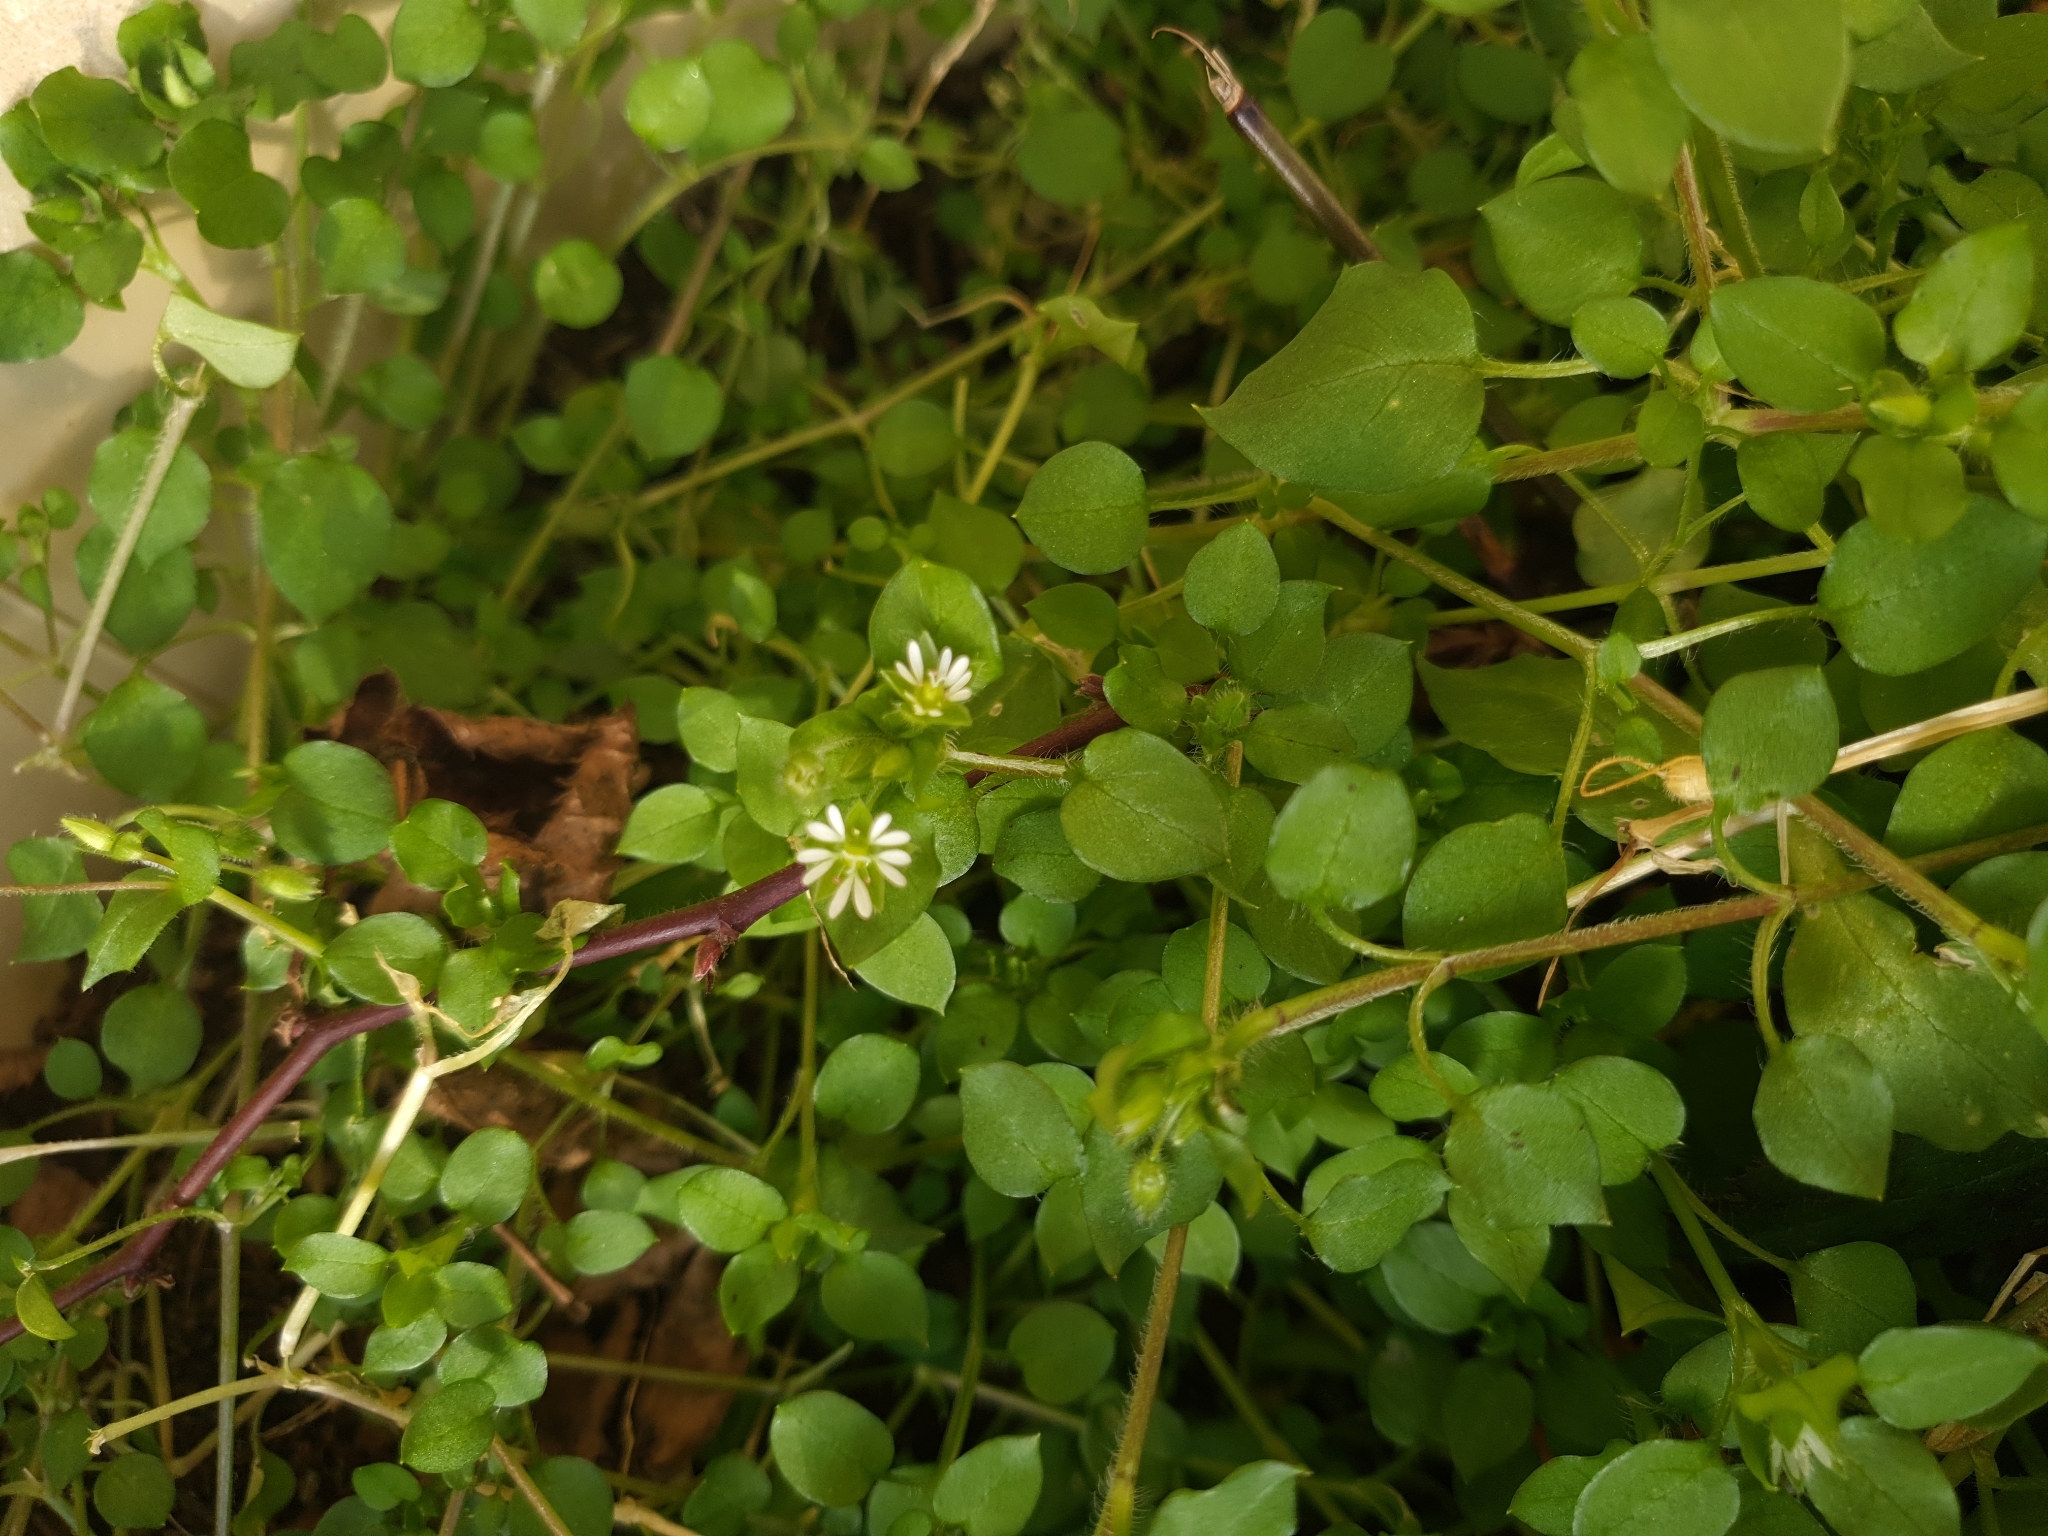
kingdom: Plantae
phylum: Tracheophyta
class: Magnoliopsida
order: Caryophyllales
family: Caryophyllaceae
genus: Stellaria
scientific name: Stellaria media
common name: Common chickweed
